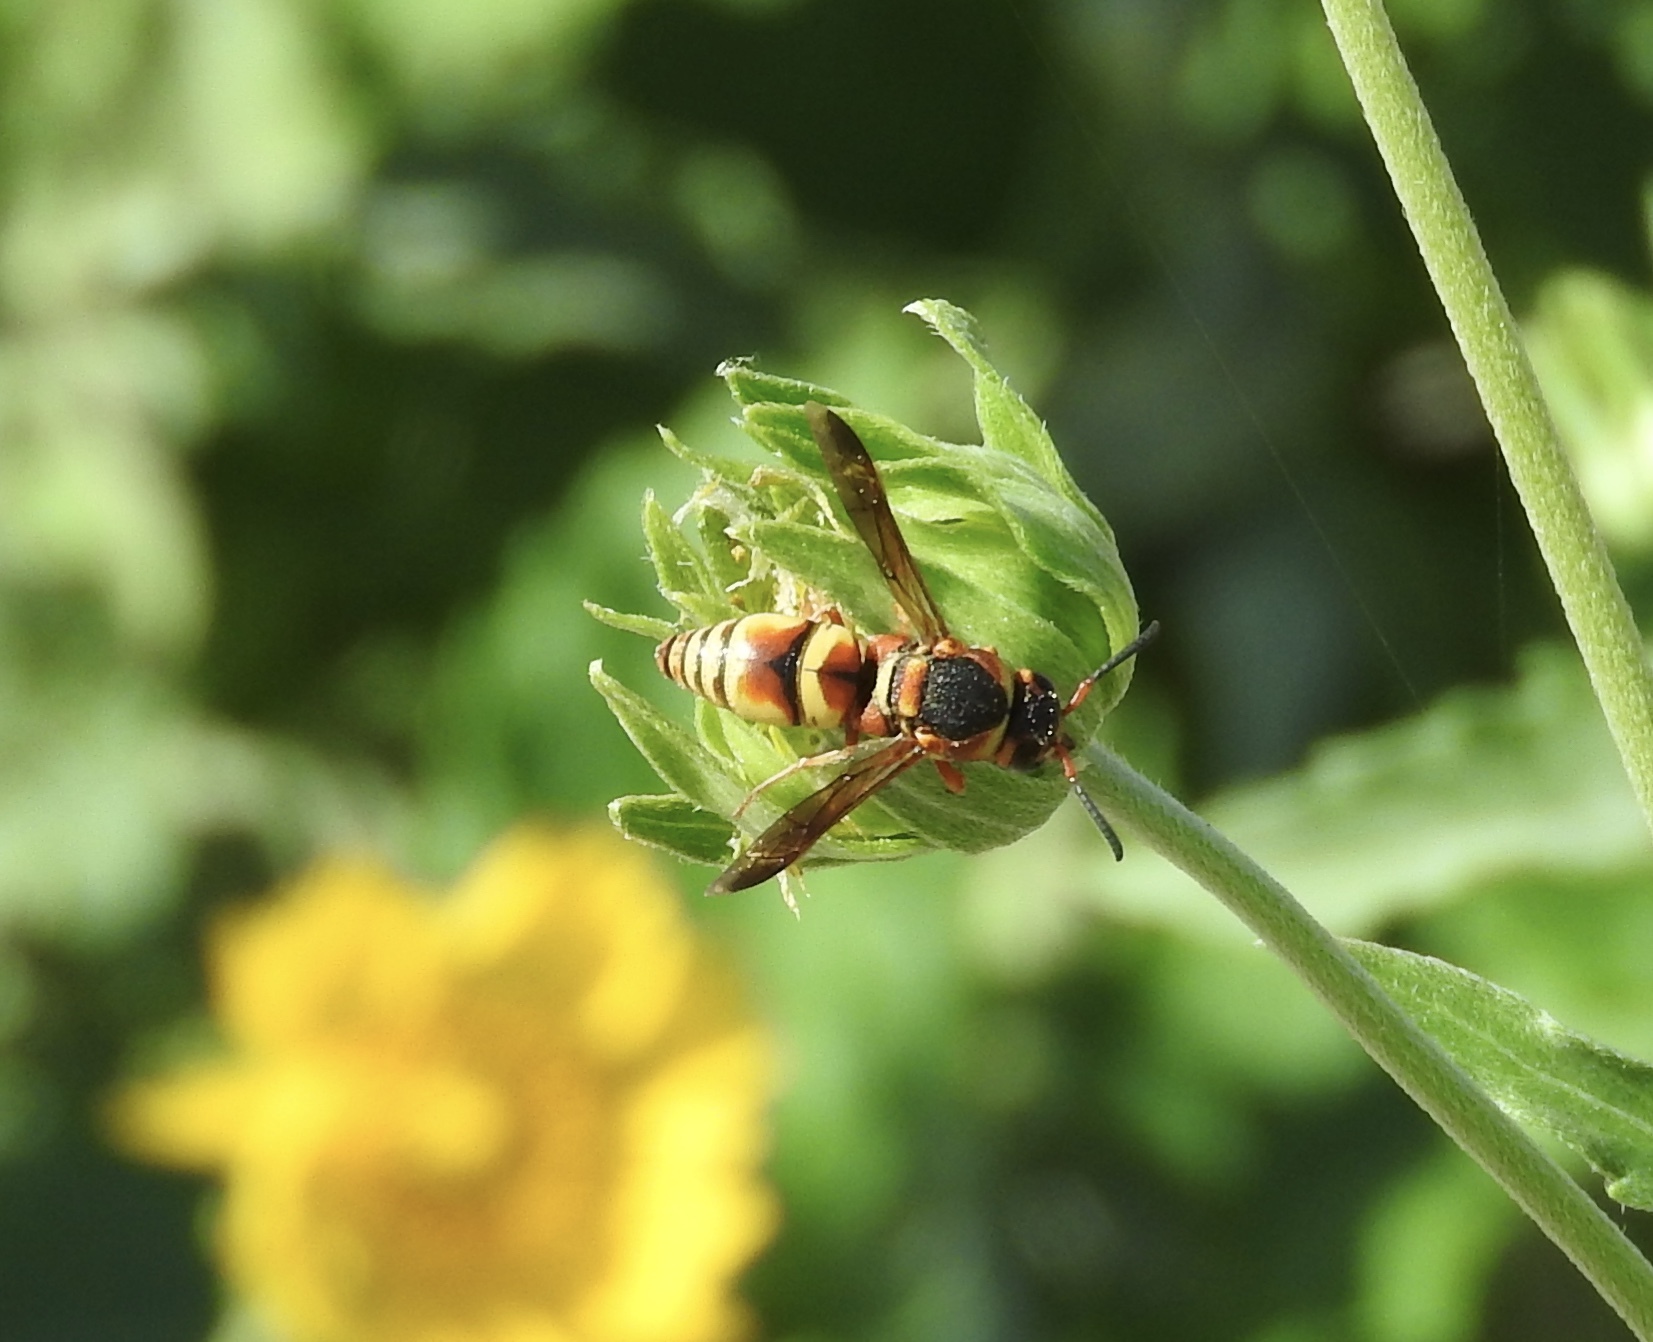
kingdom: Animalia
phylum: Arthropoda
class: Insecta
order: Hymenoptera
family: Eumenidae
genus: Euodynerus
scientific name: Euodynerus hidalgo
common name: Wasp
